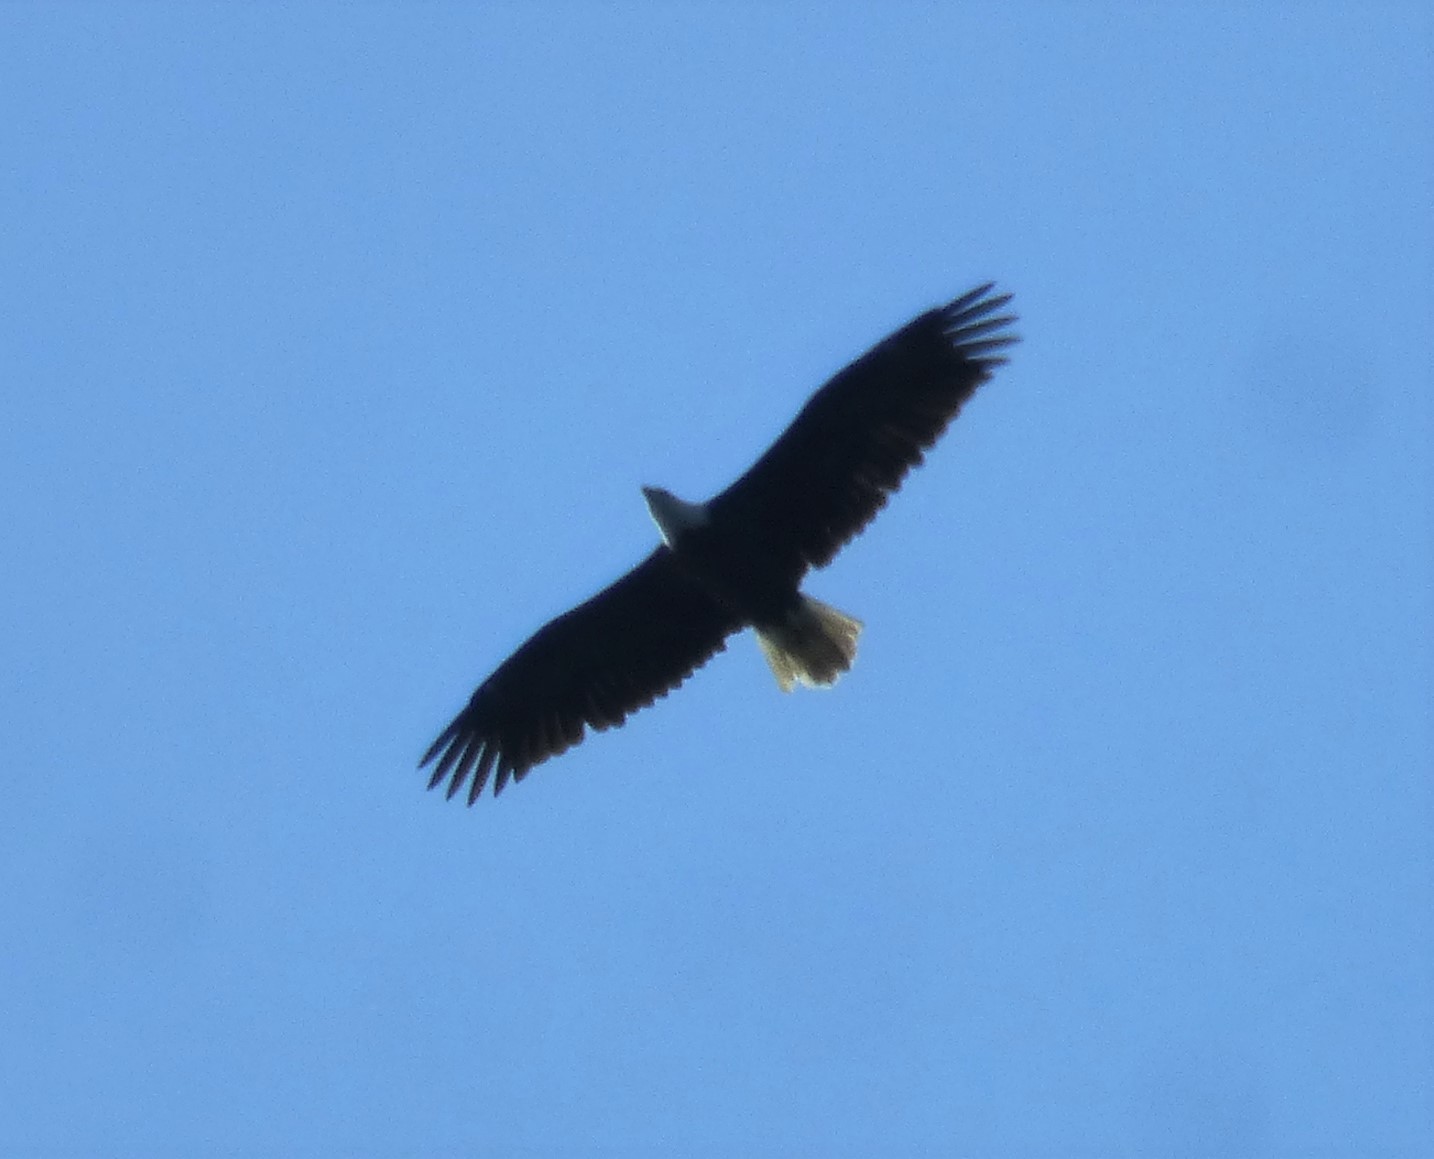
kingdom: Animalia
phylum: Chordata
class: Aves
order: Accipitriformes
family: Accipitridae
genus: Haliaeetus
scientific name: Haliaeetus leucocephalus
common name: Bald eagle
